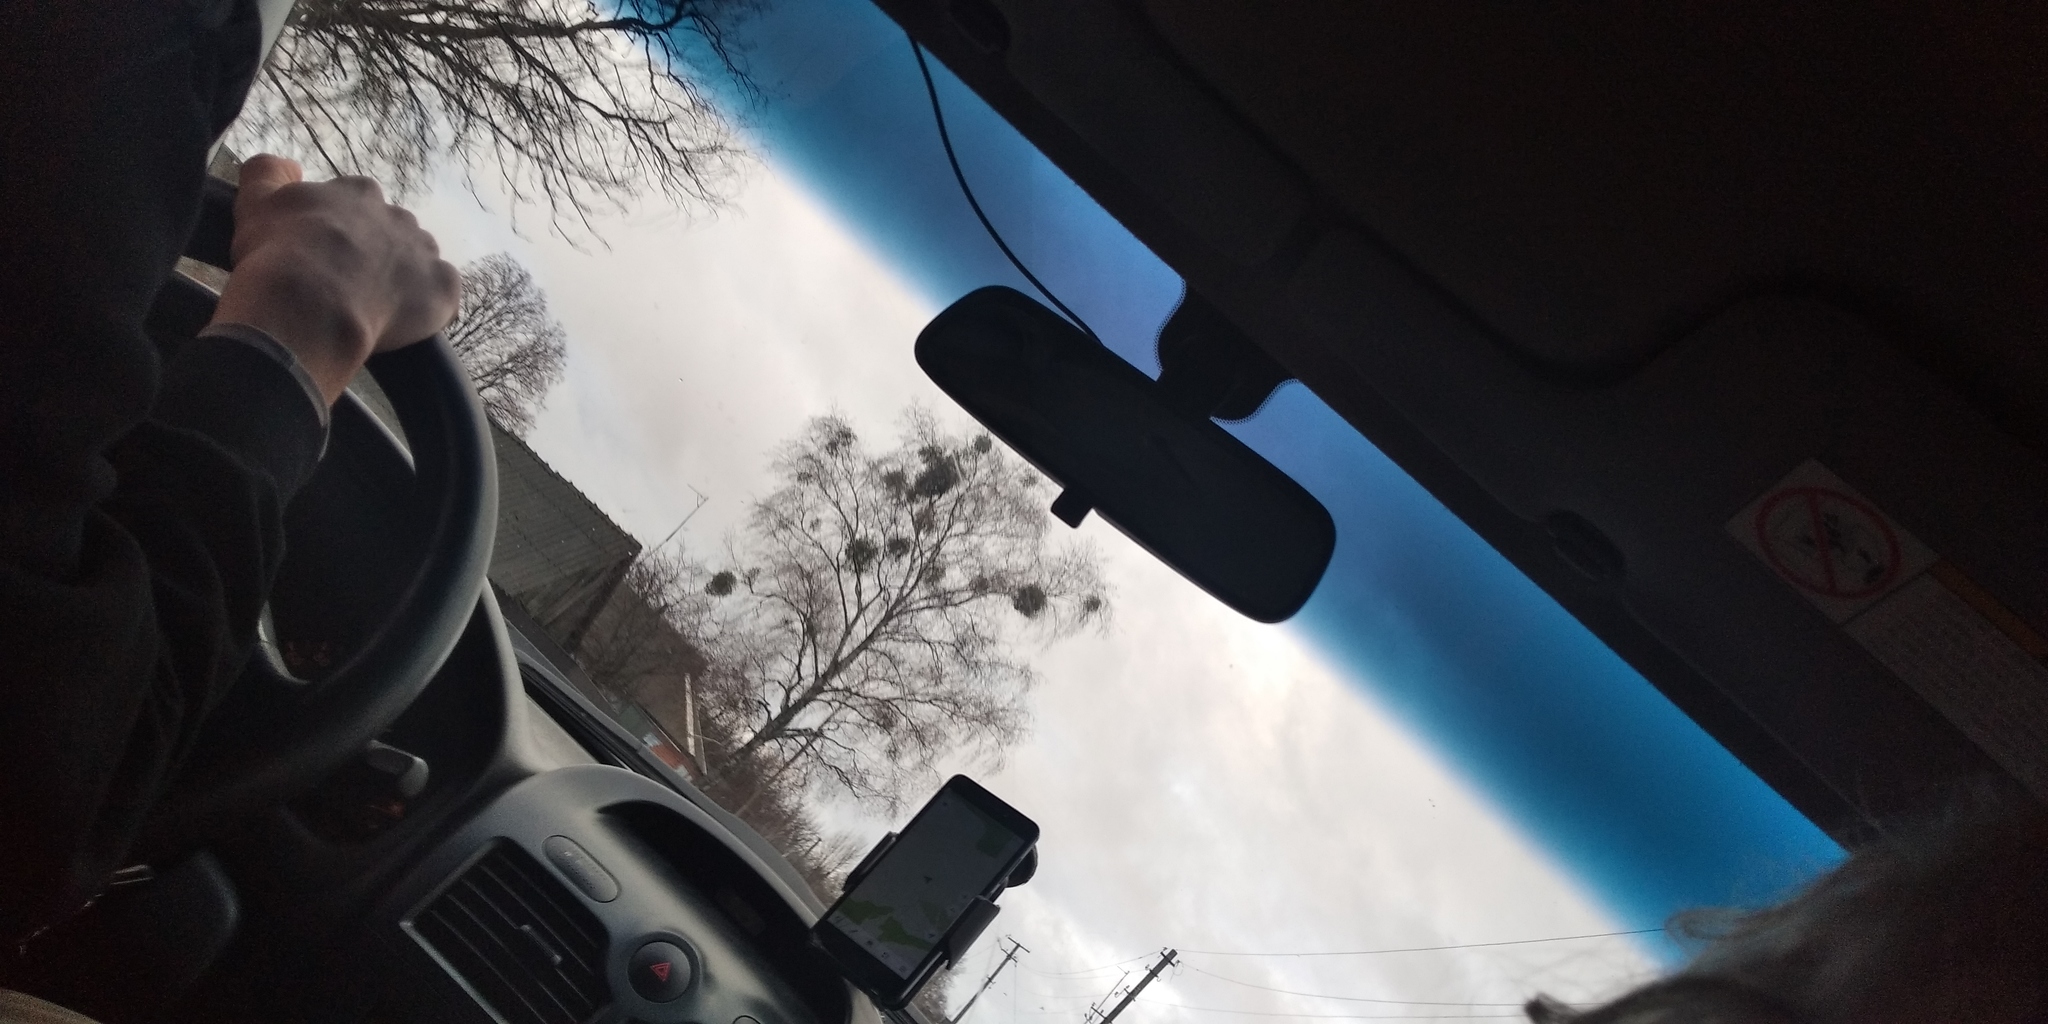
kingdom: Plantae
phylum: Tracheophyta
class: Magnoliopsida
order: Santalales
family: Viscaceae
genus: Viscum
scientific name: Viscum album
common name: Mistletoe
